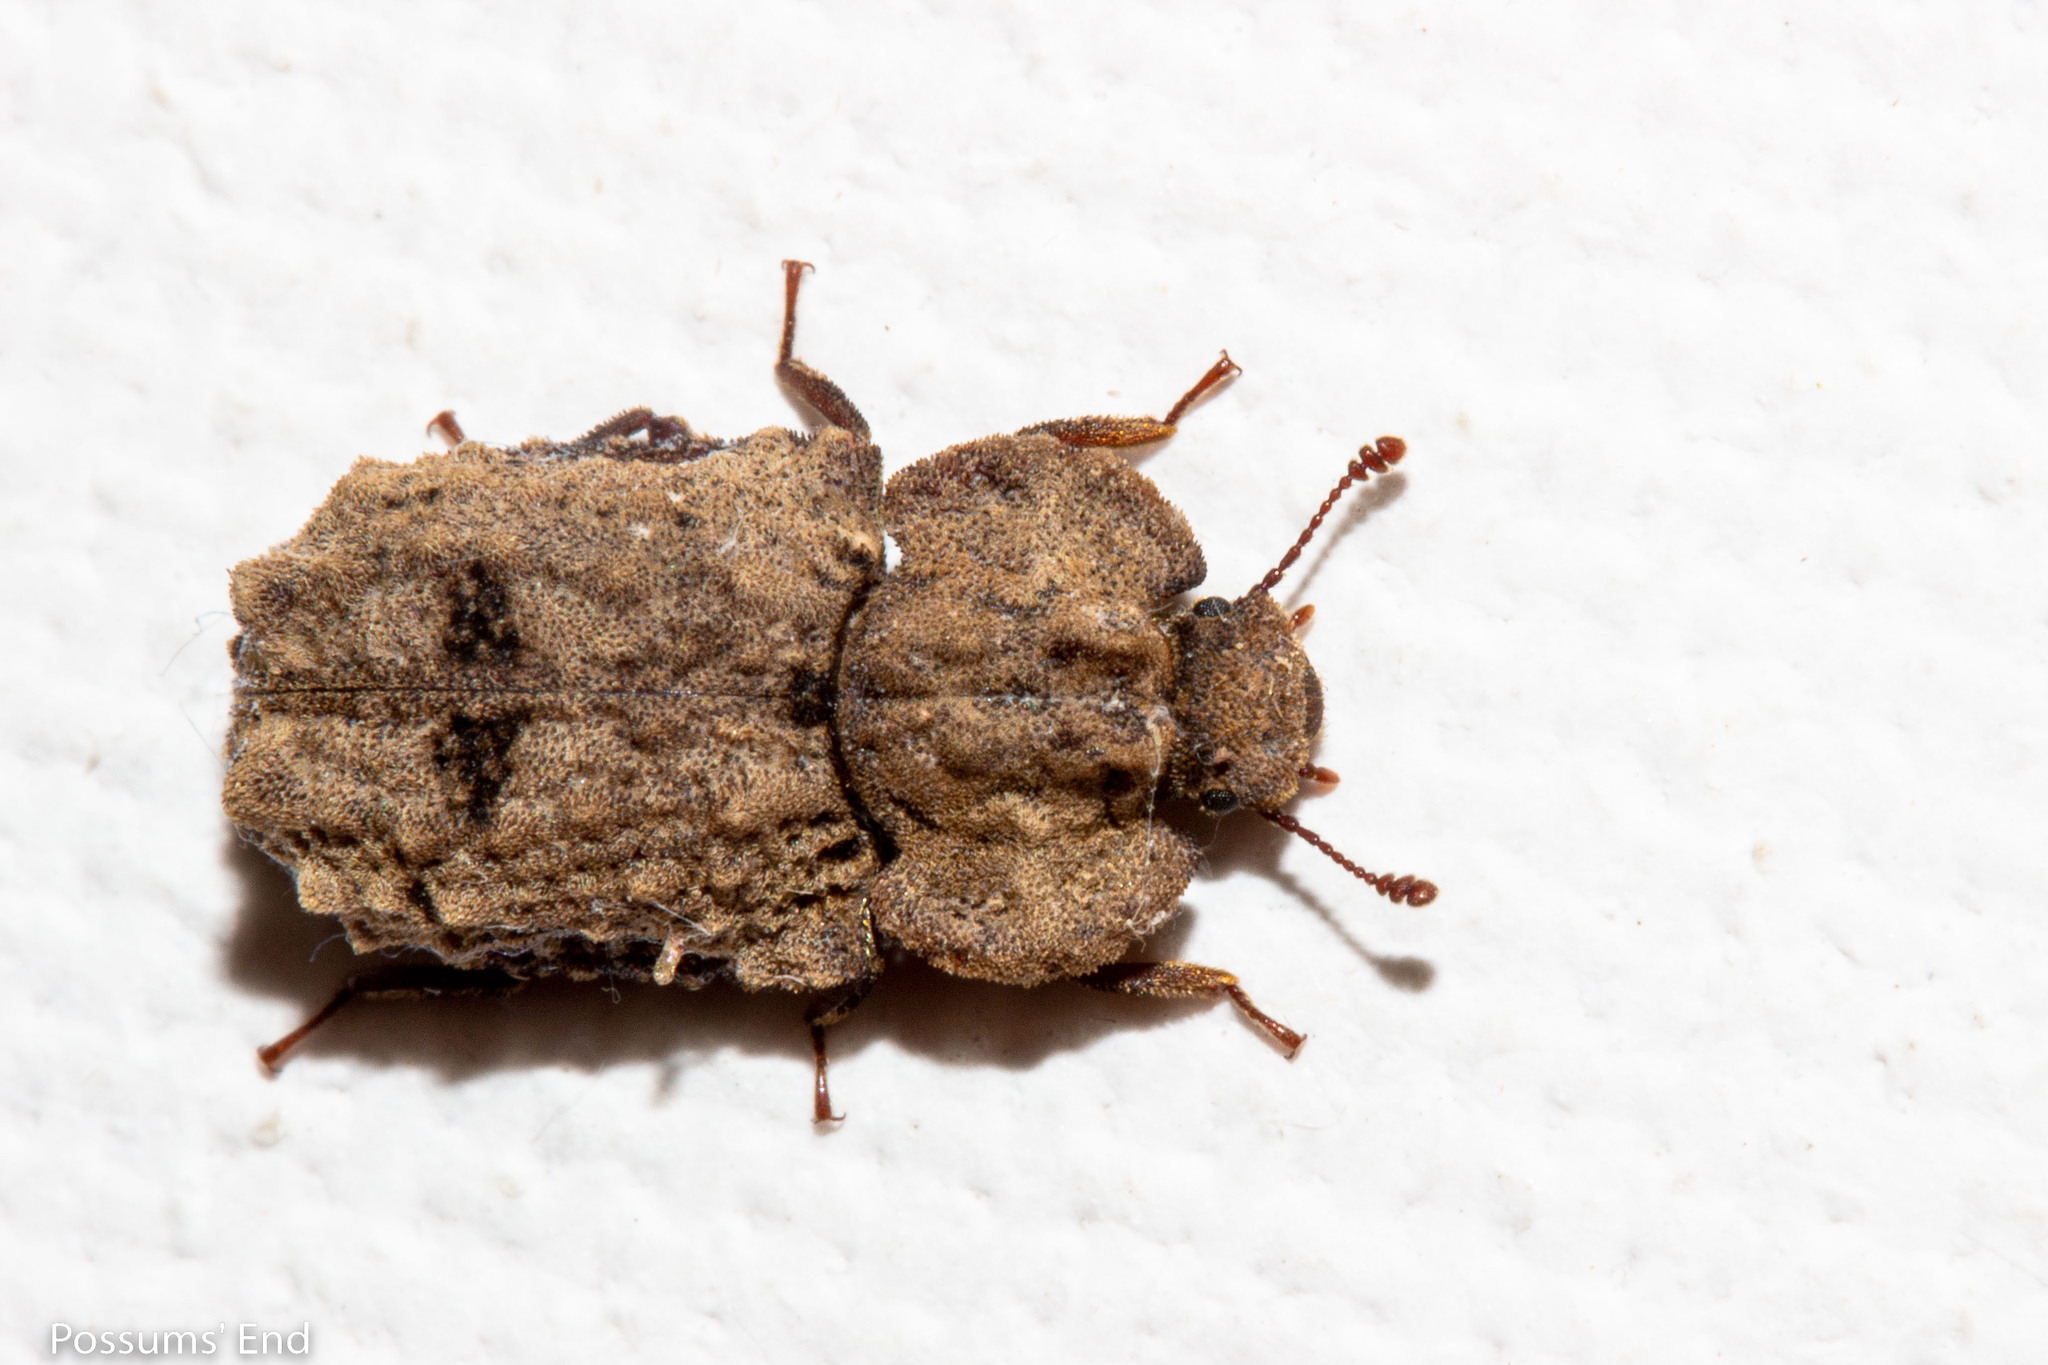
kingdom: Animalia
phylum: Arthropoda
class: Insecta
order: Coleoptera
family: Zopheridae
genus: Pristoderus
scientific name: Pristoderus
